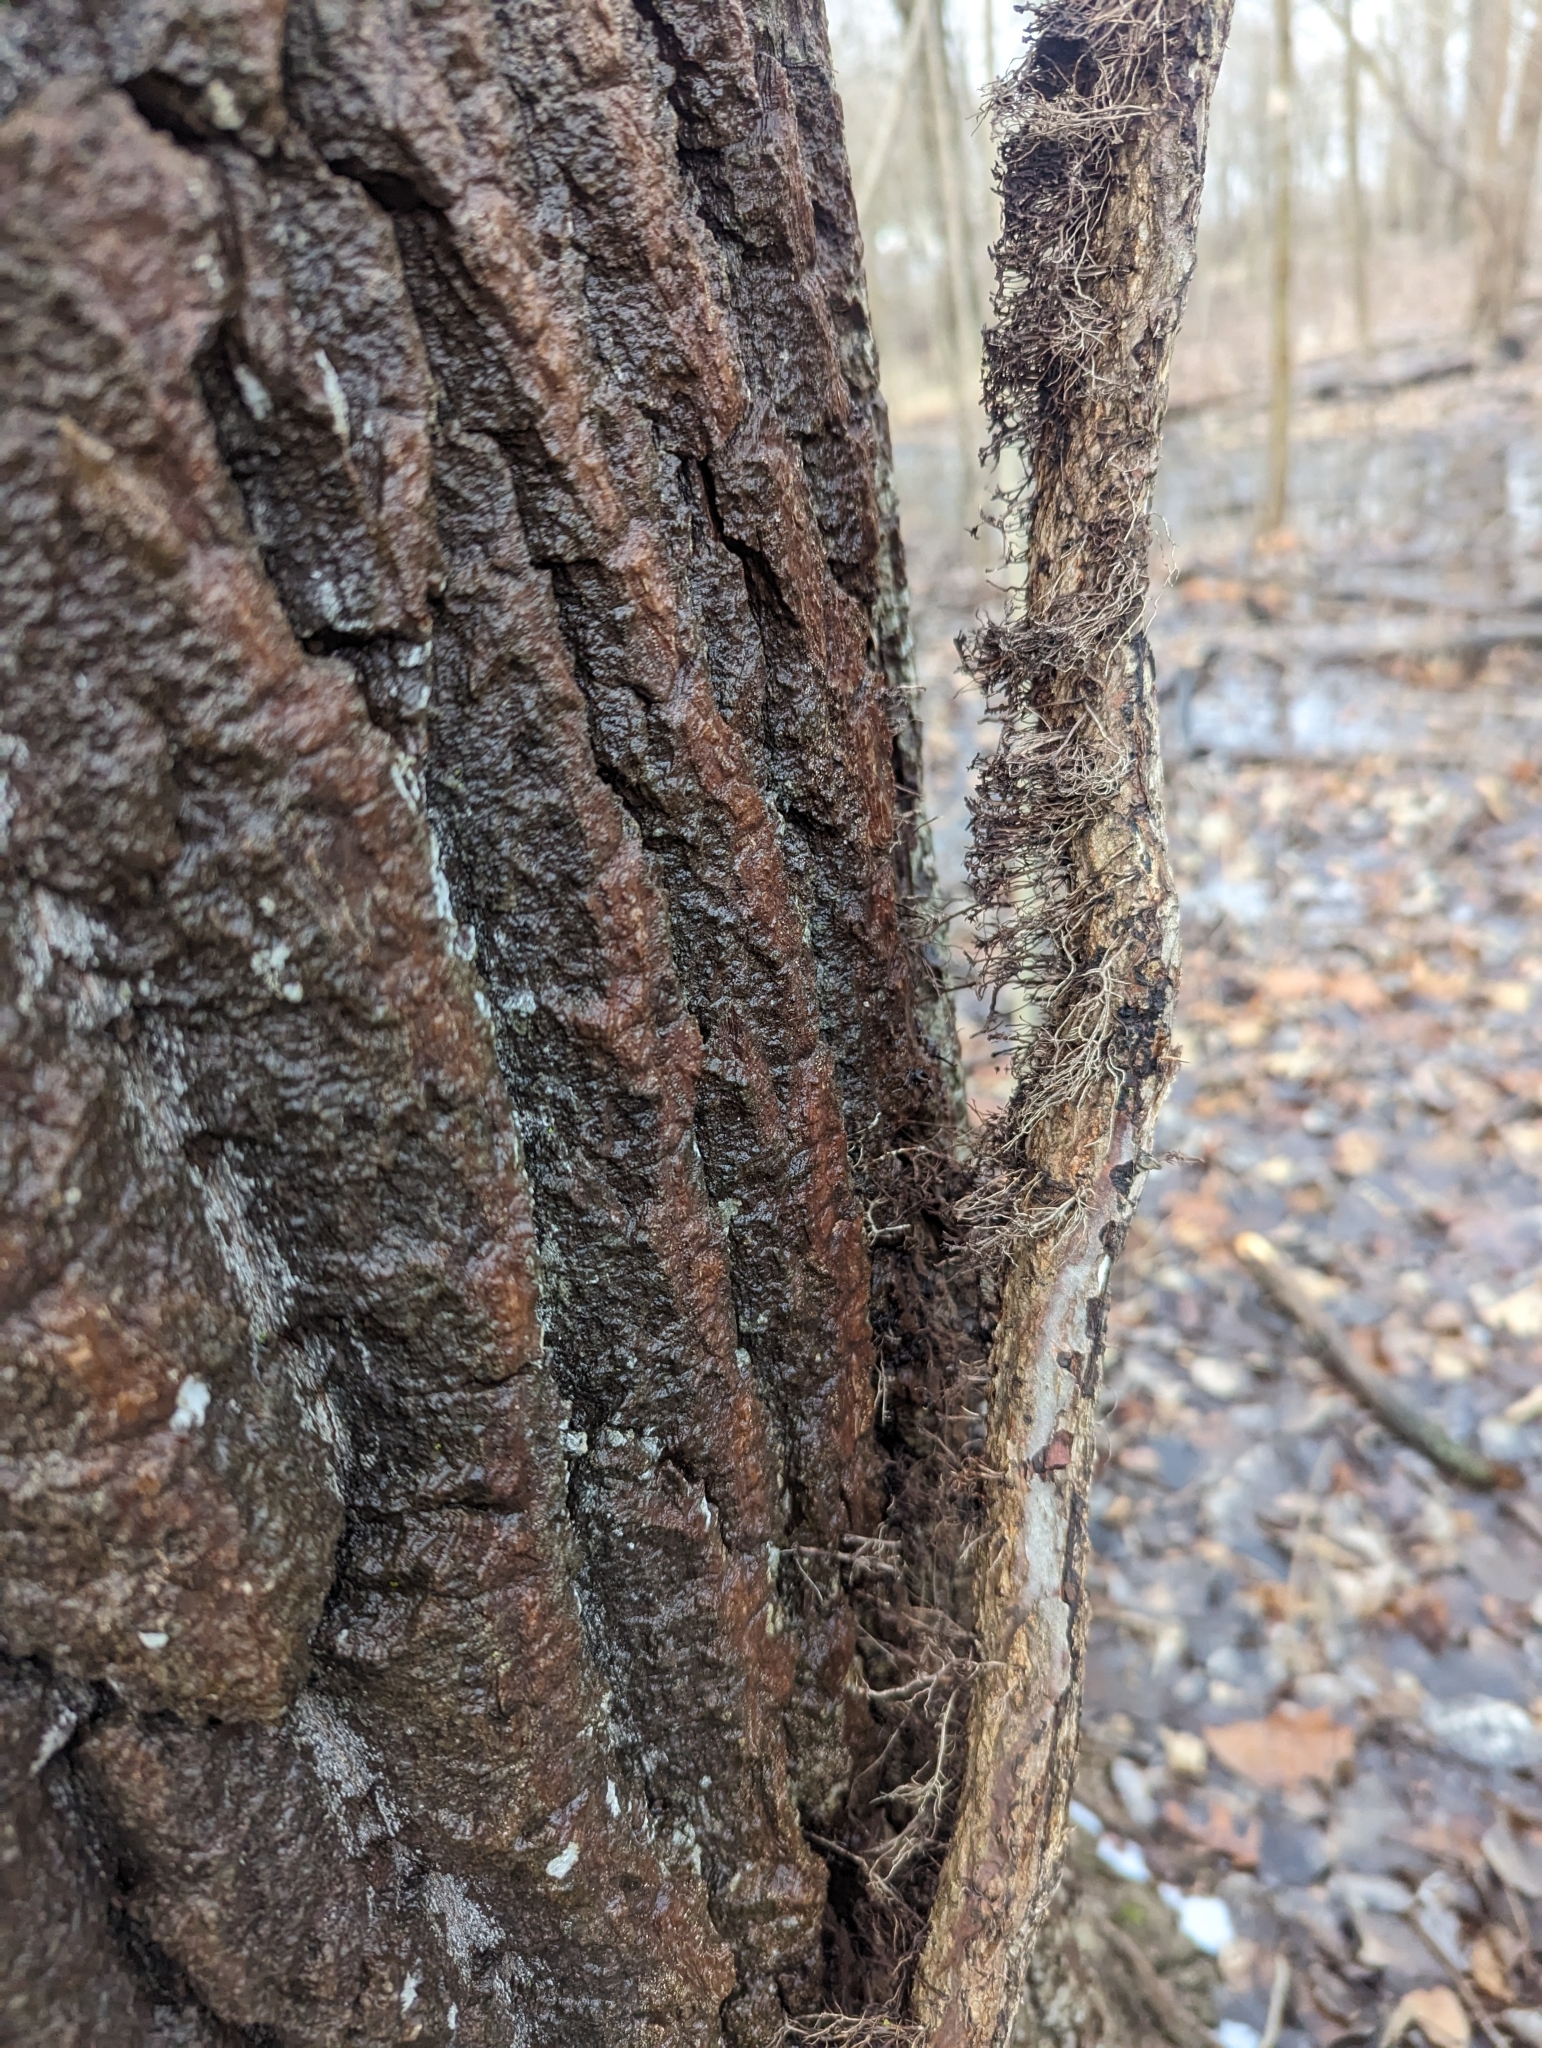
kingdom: Plantae
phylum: Tracheophyta
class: Magnoliopsida
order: Sapindales
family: Anacardiaceae
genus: Toxicodendron
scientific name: Toxicodendron radicans
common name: Poison ivy
